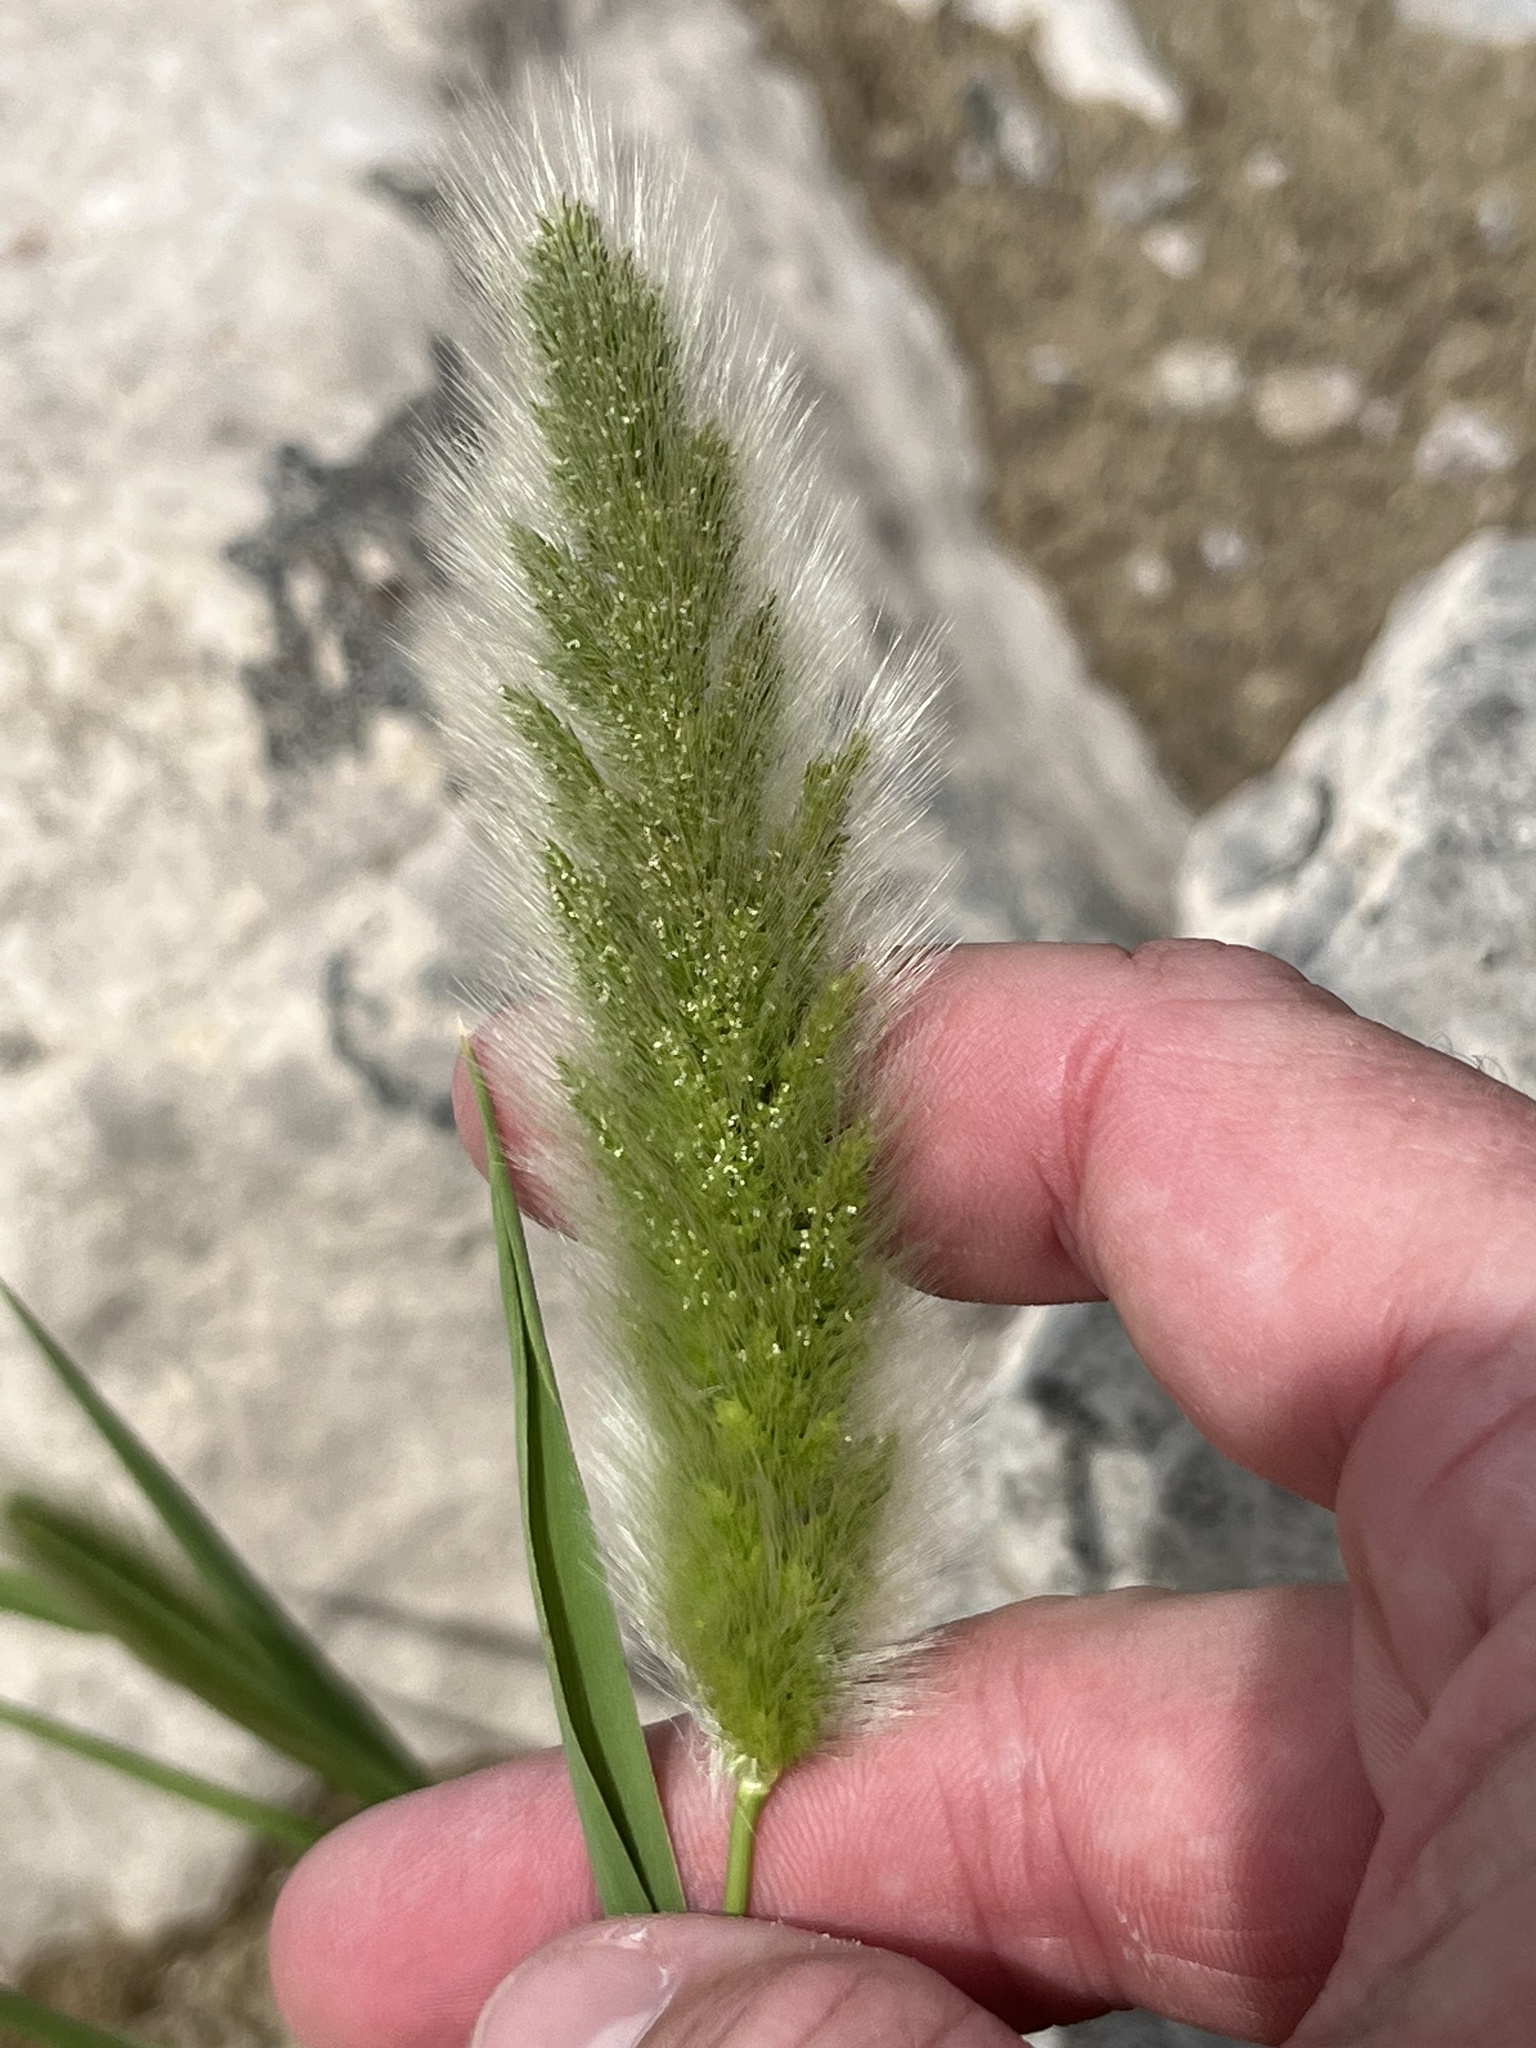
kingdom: Plantae
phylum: Tracheophyta
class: Liliopsida
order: Poales
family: Poaceae
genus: Polypogon
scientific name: Polypogon monspeliensis
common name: Annual rabbitsfoot grass
